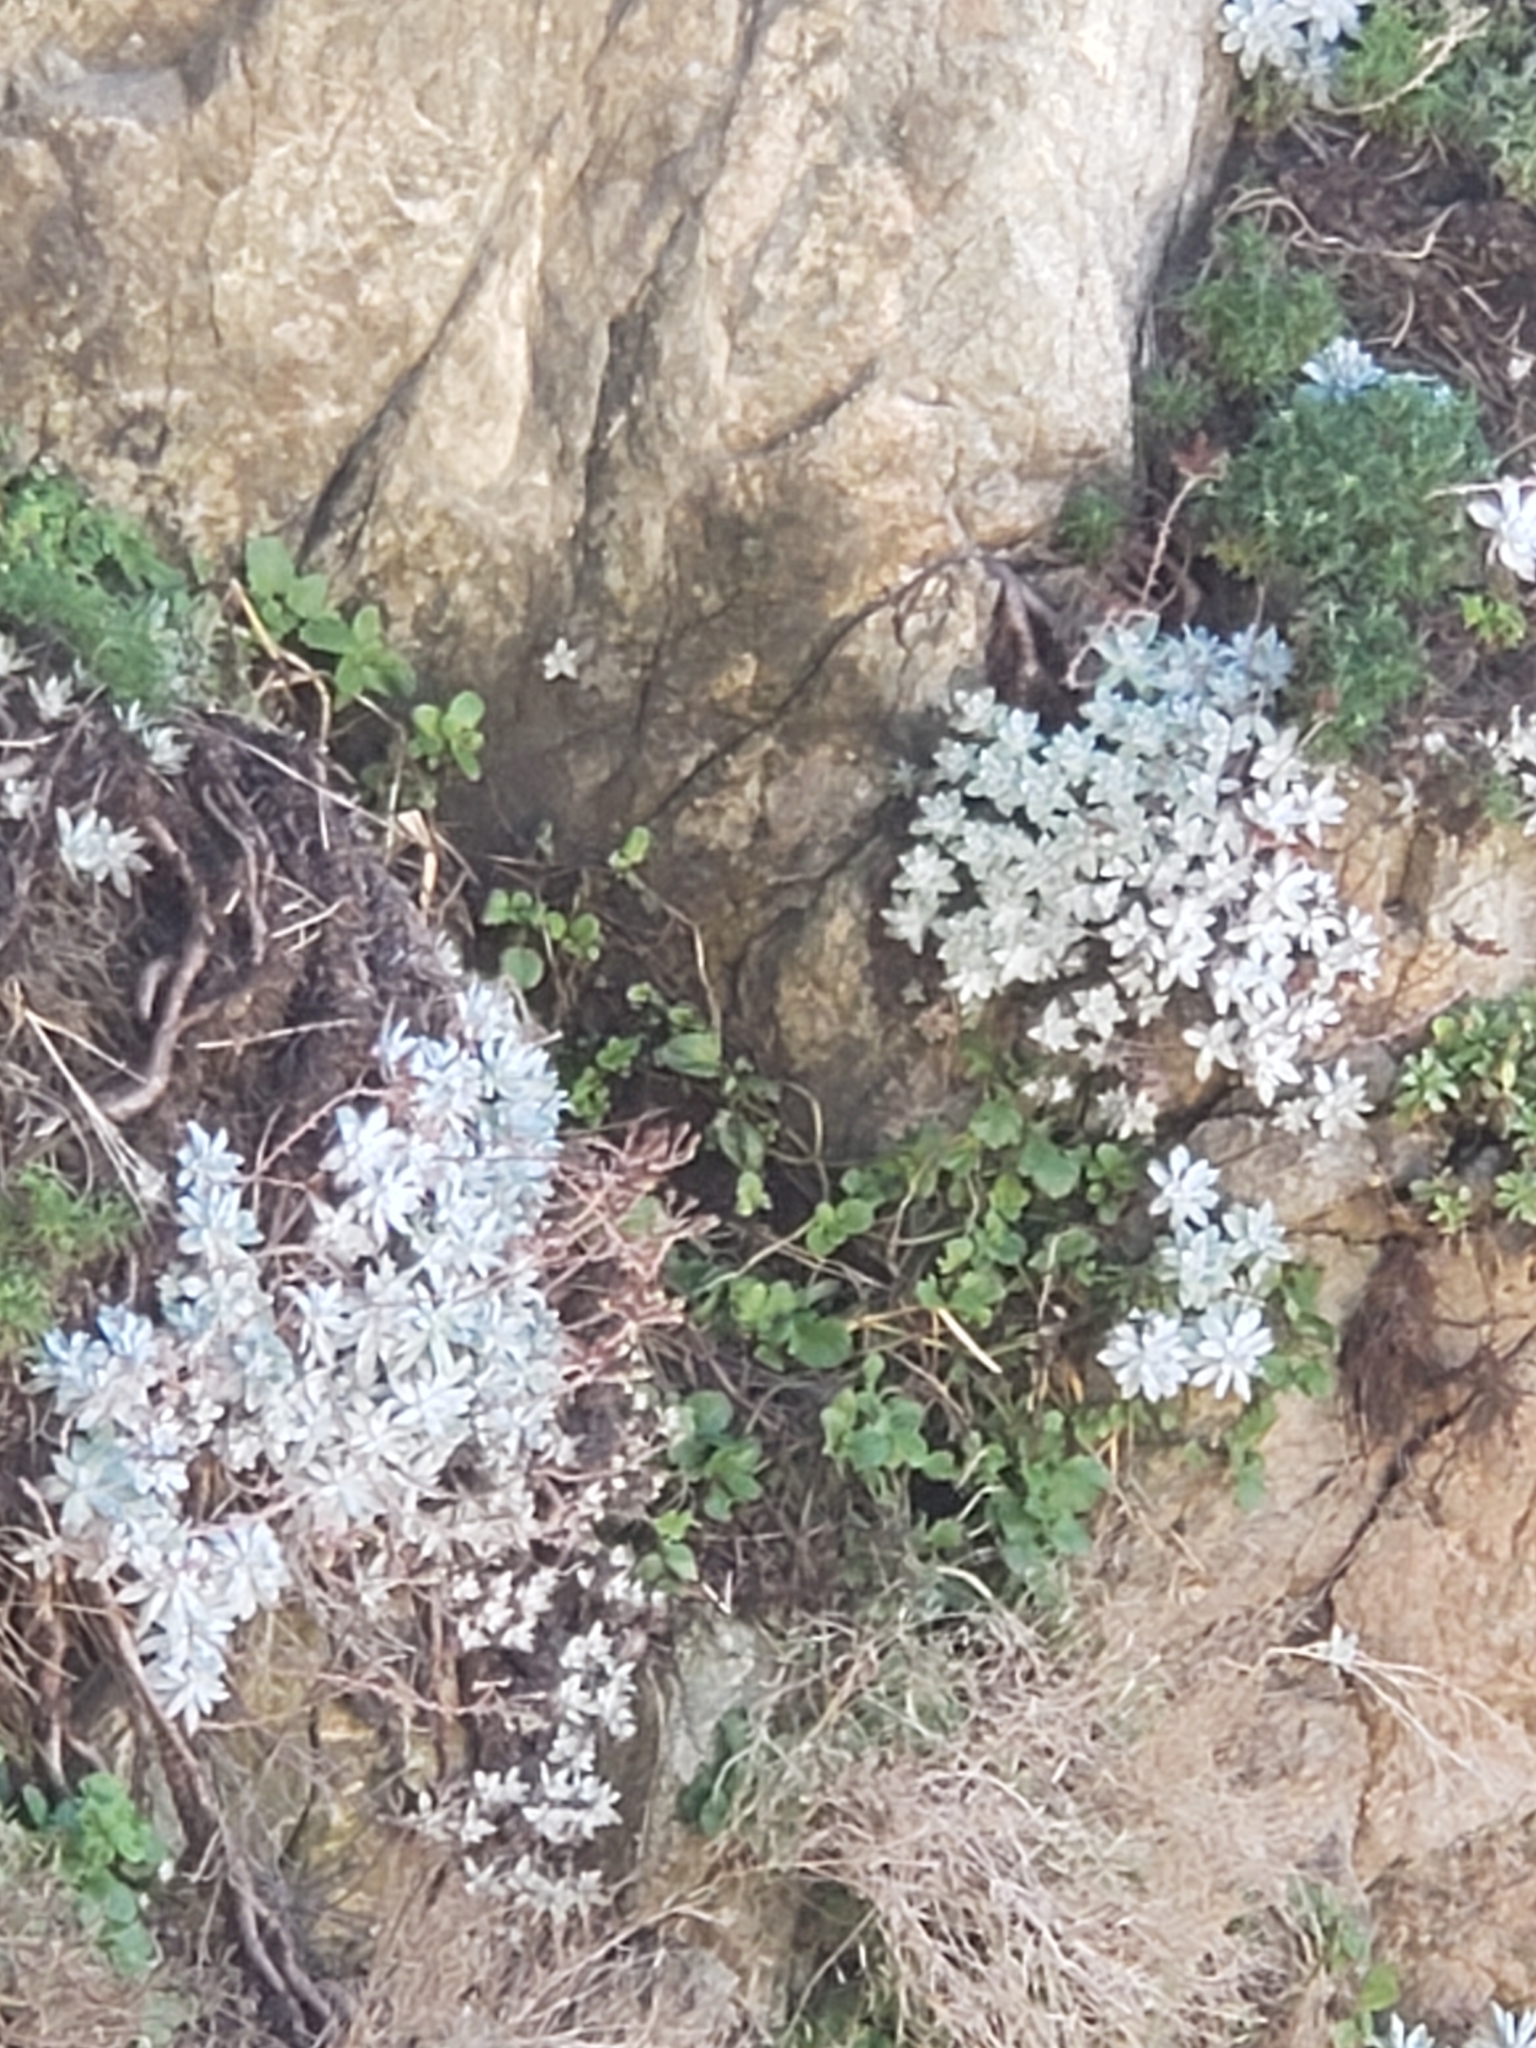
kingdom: Plantae
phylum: Tracheophyta
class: Magnoliopsida
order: Saxifragales
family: Crassulaceae
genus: Dudleya
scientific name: Dudleya farinosa
